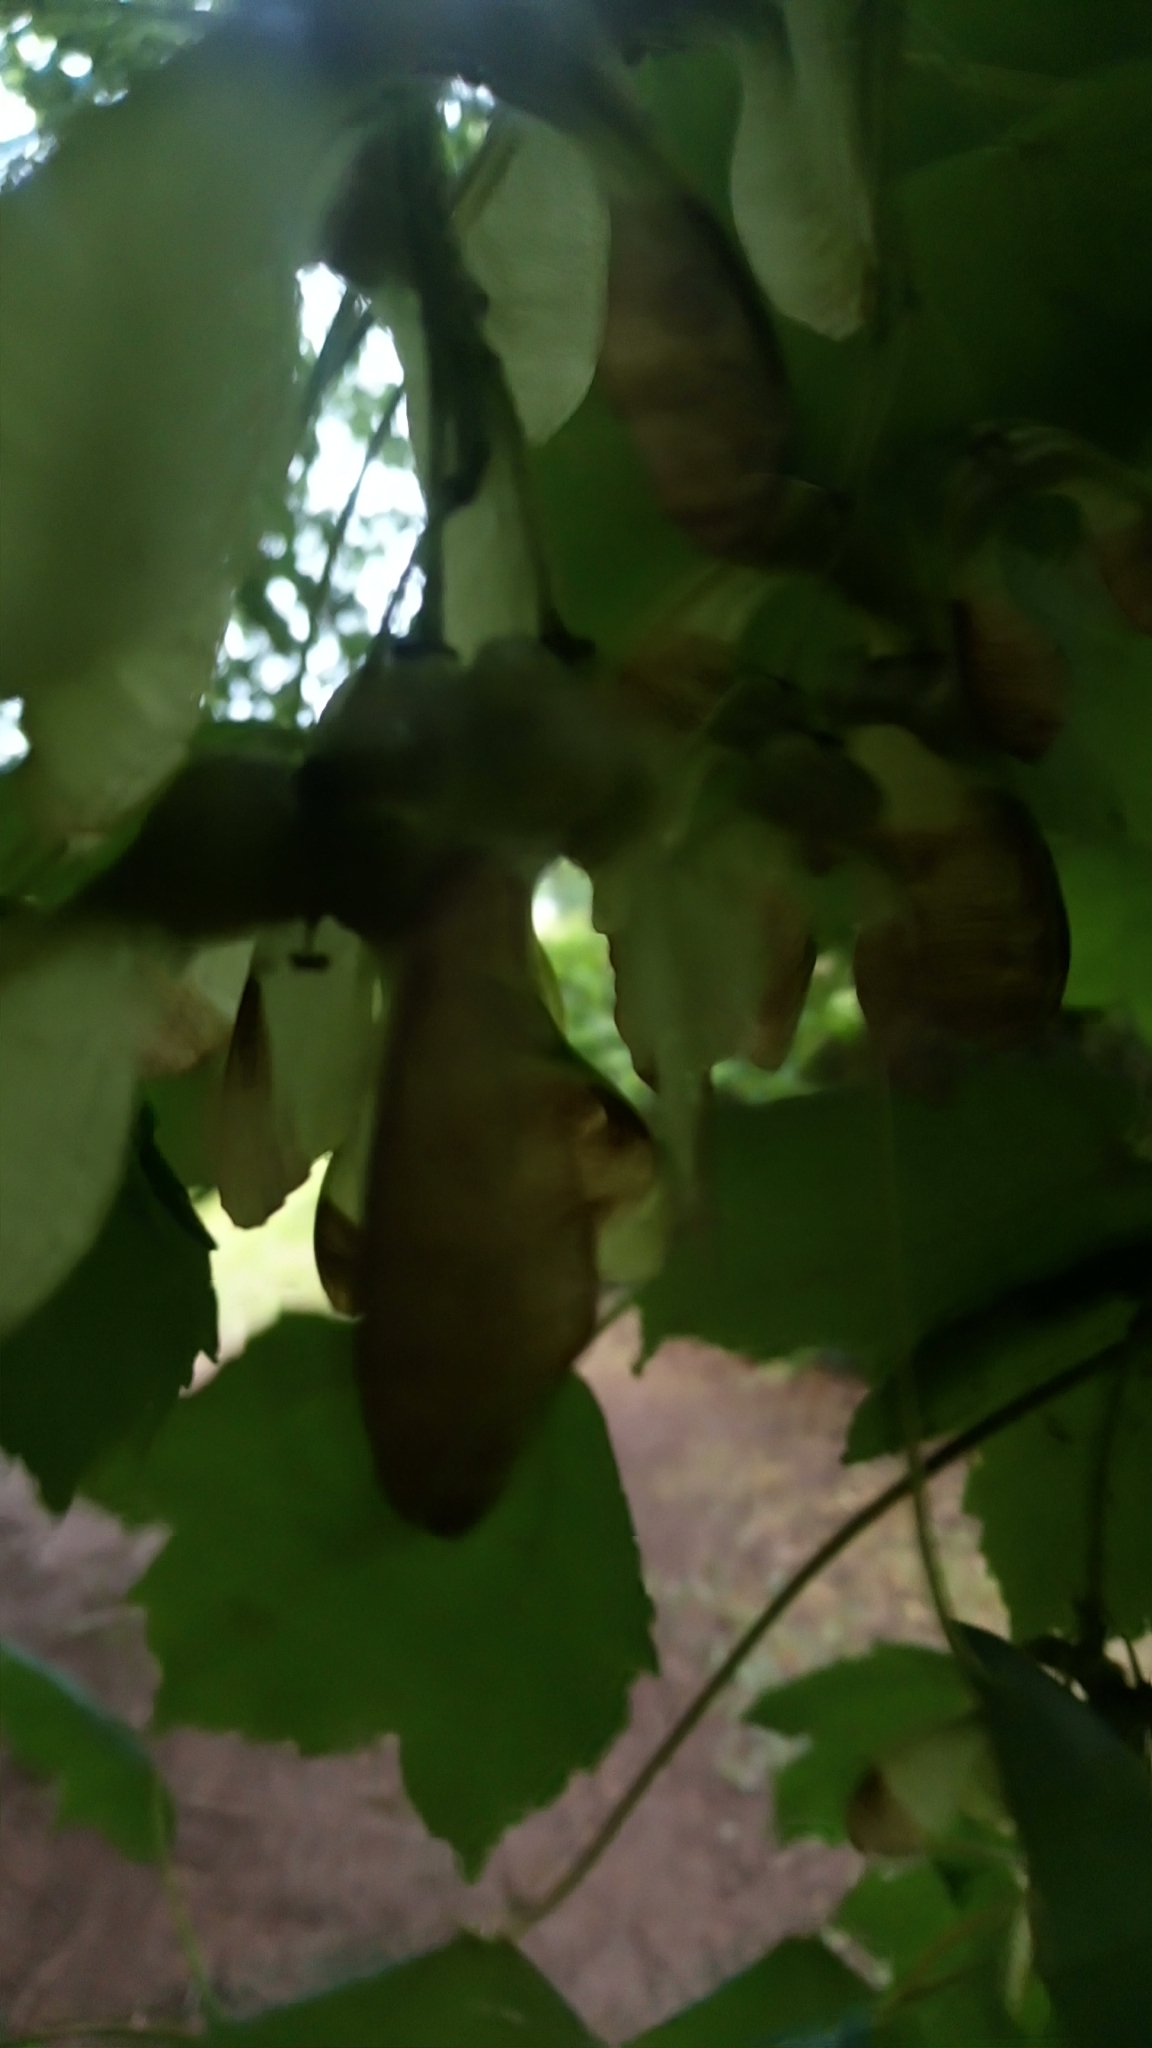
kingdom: Plantae
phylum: Tracheophyta
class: Magnoliopsida
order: Sapindales
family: Sapindaceae
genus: Acer
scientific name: Acer pseudoplatanus
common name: Sycamore
